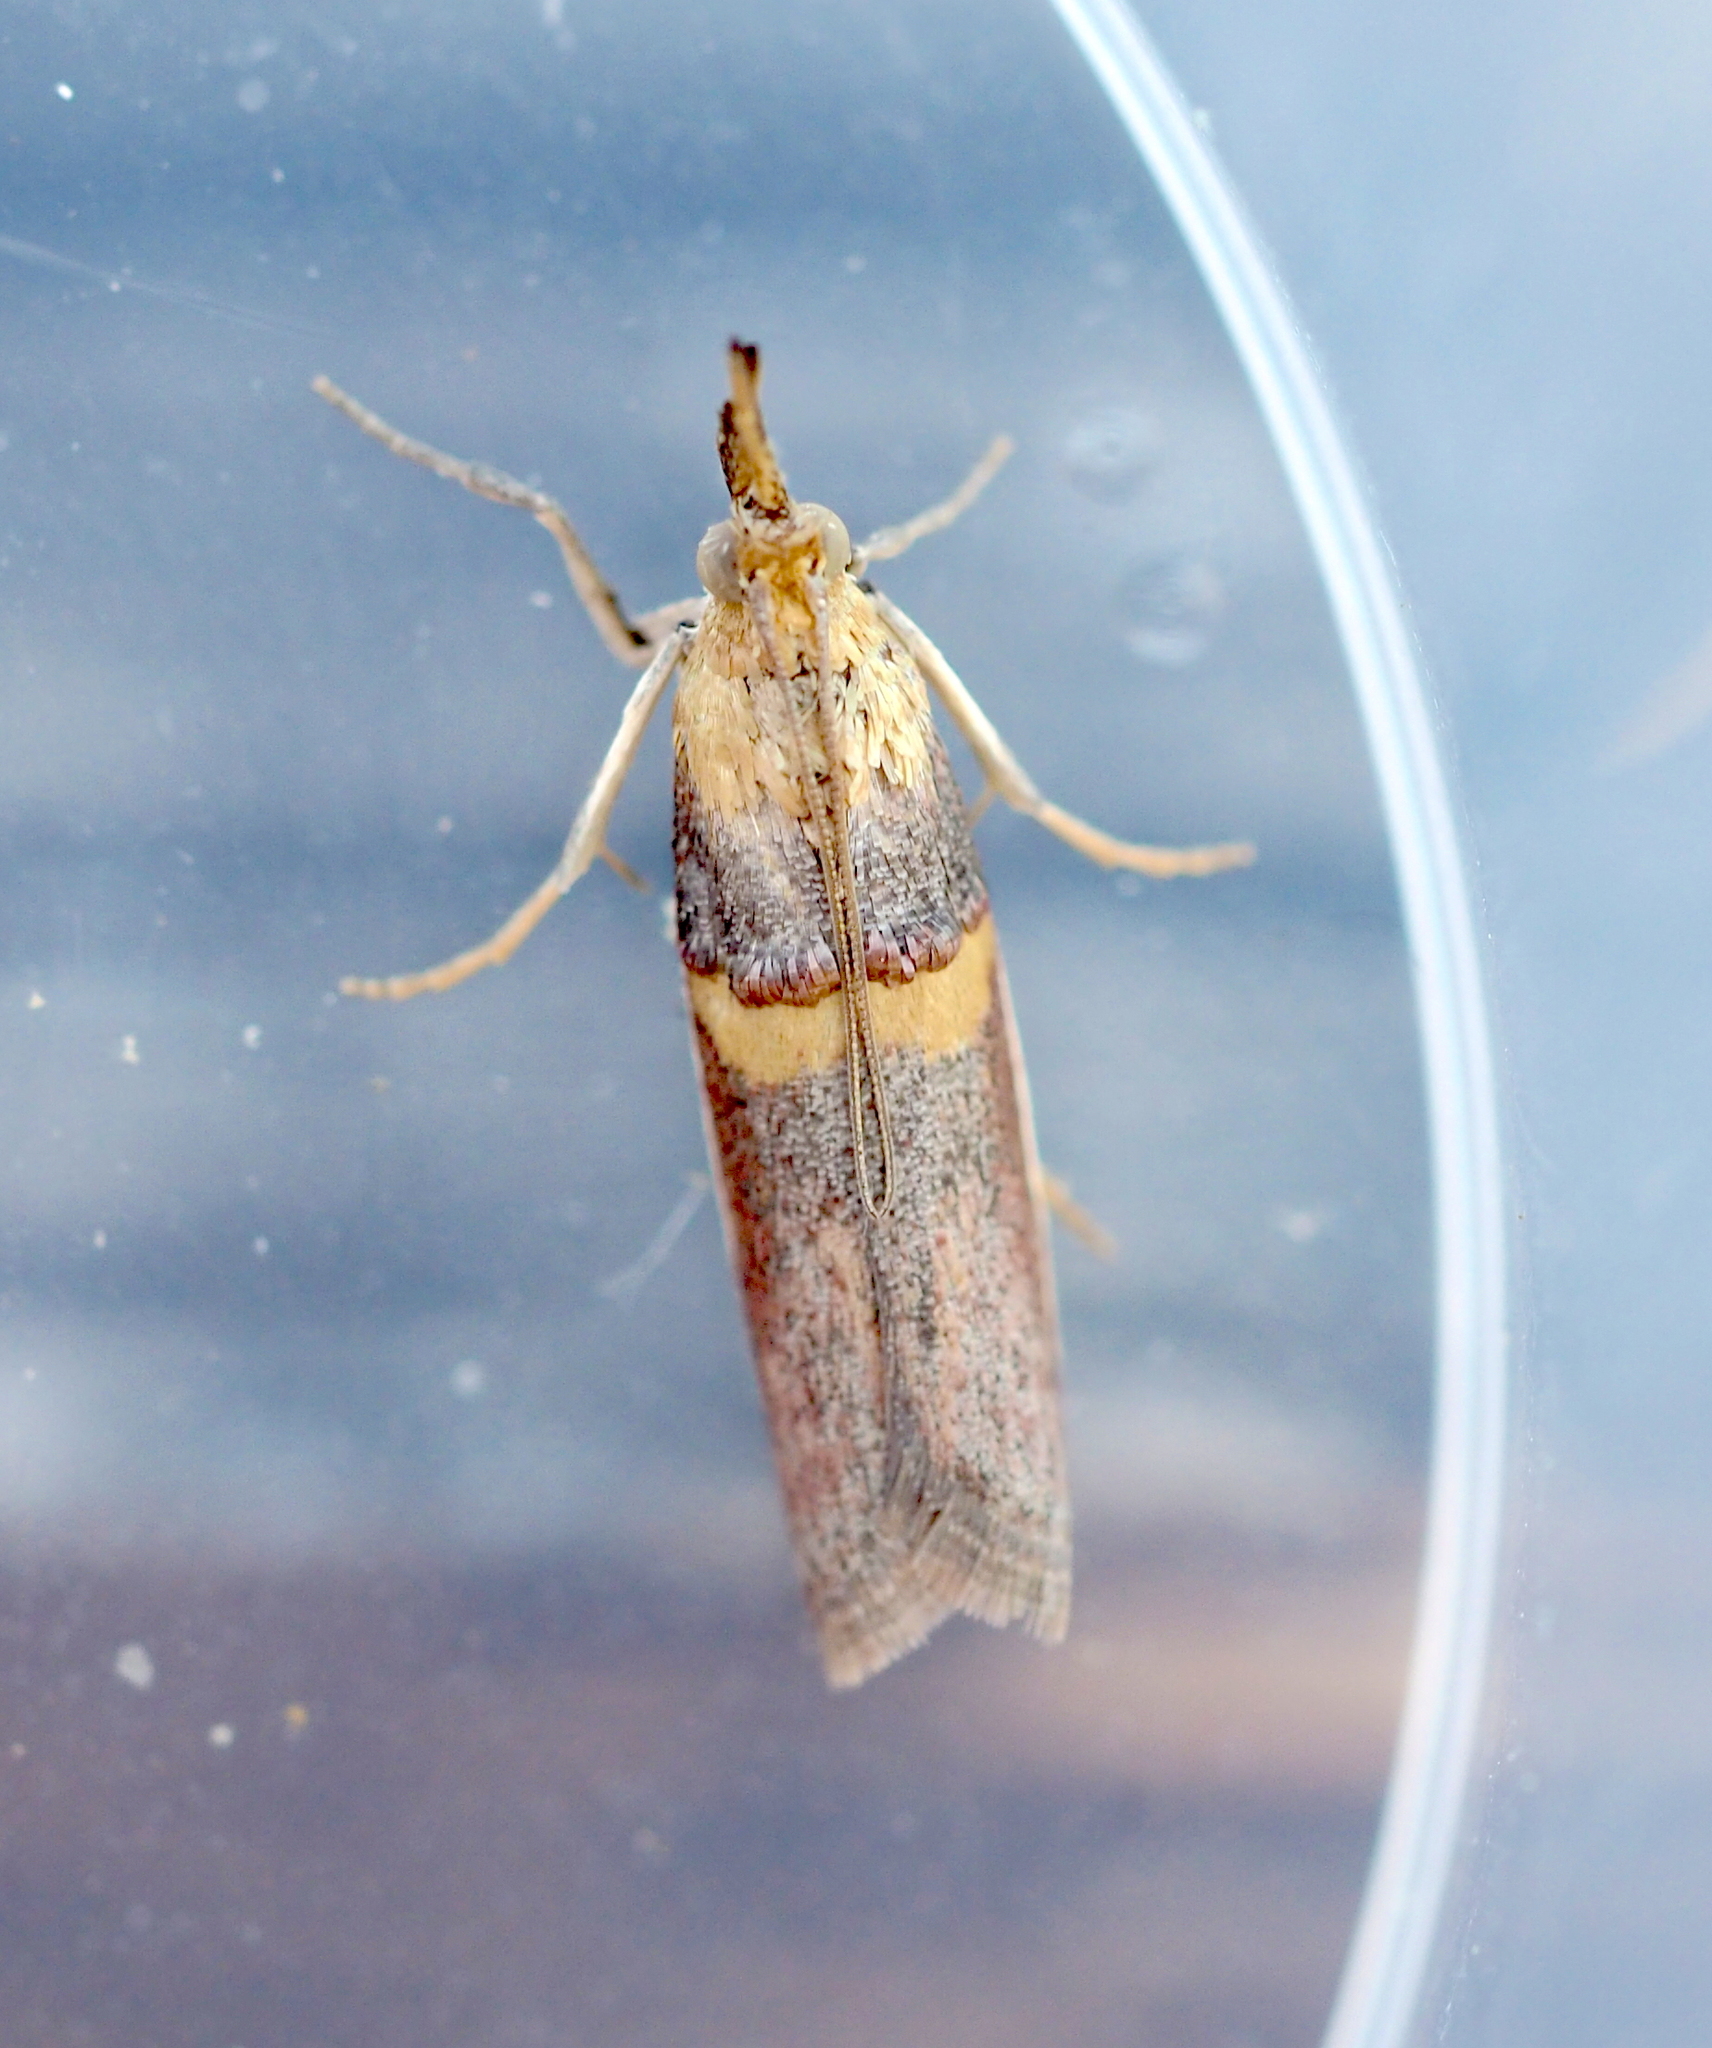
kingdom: Animalia
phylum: Arthropoda
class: Insecta
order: Lepidoptera
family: Pyralidae
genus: Etiella
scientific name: Etiella zinckenella
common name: Gold-banded etiella moth
